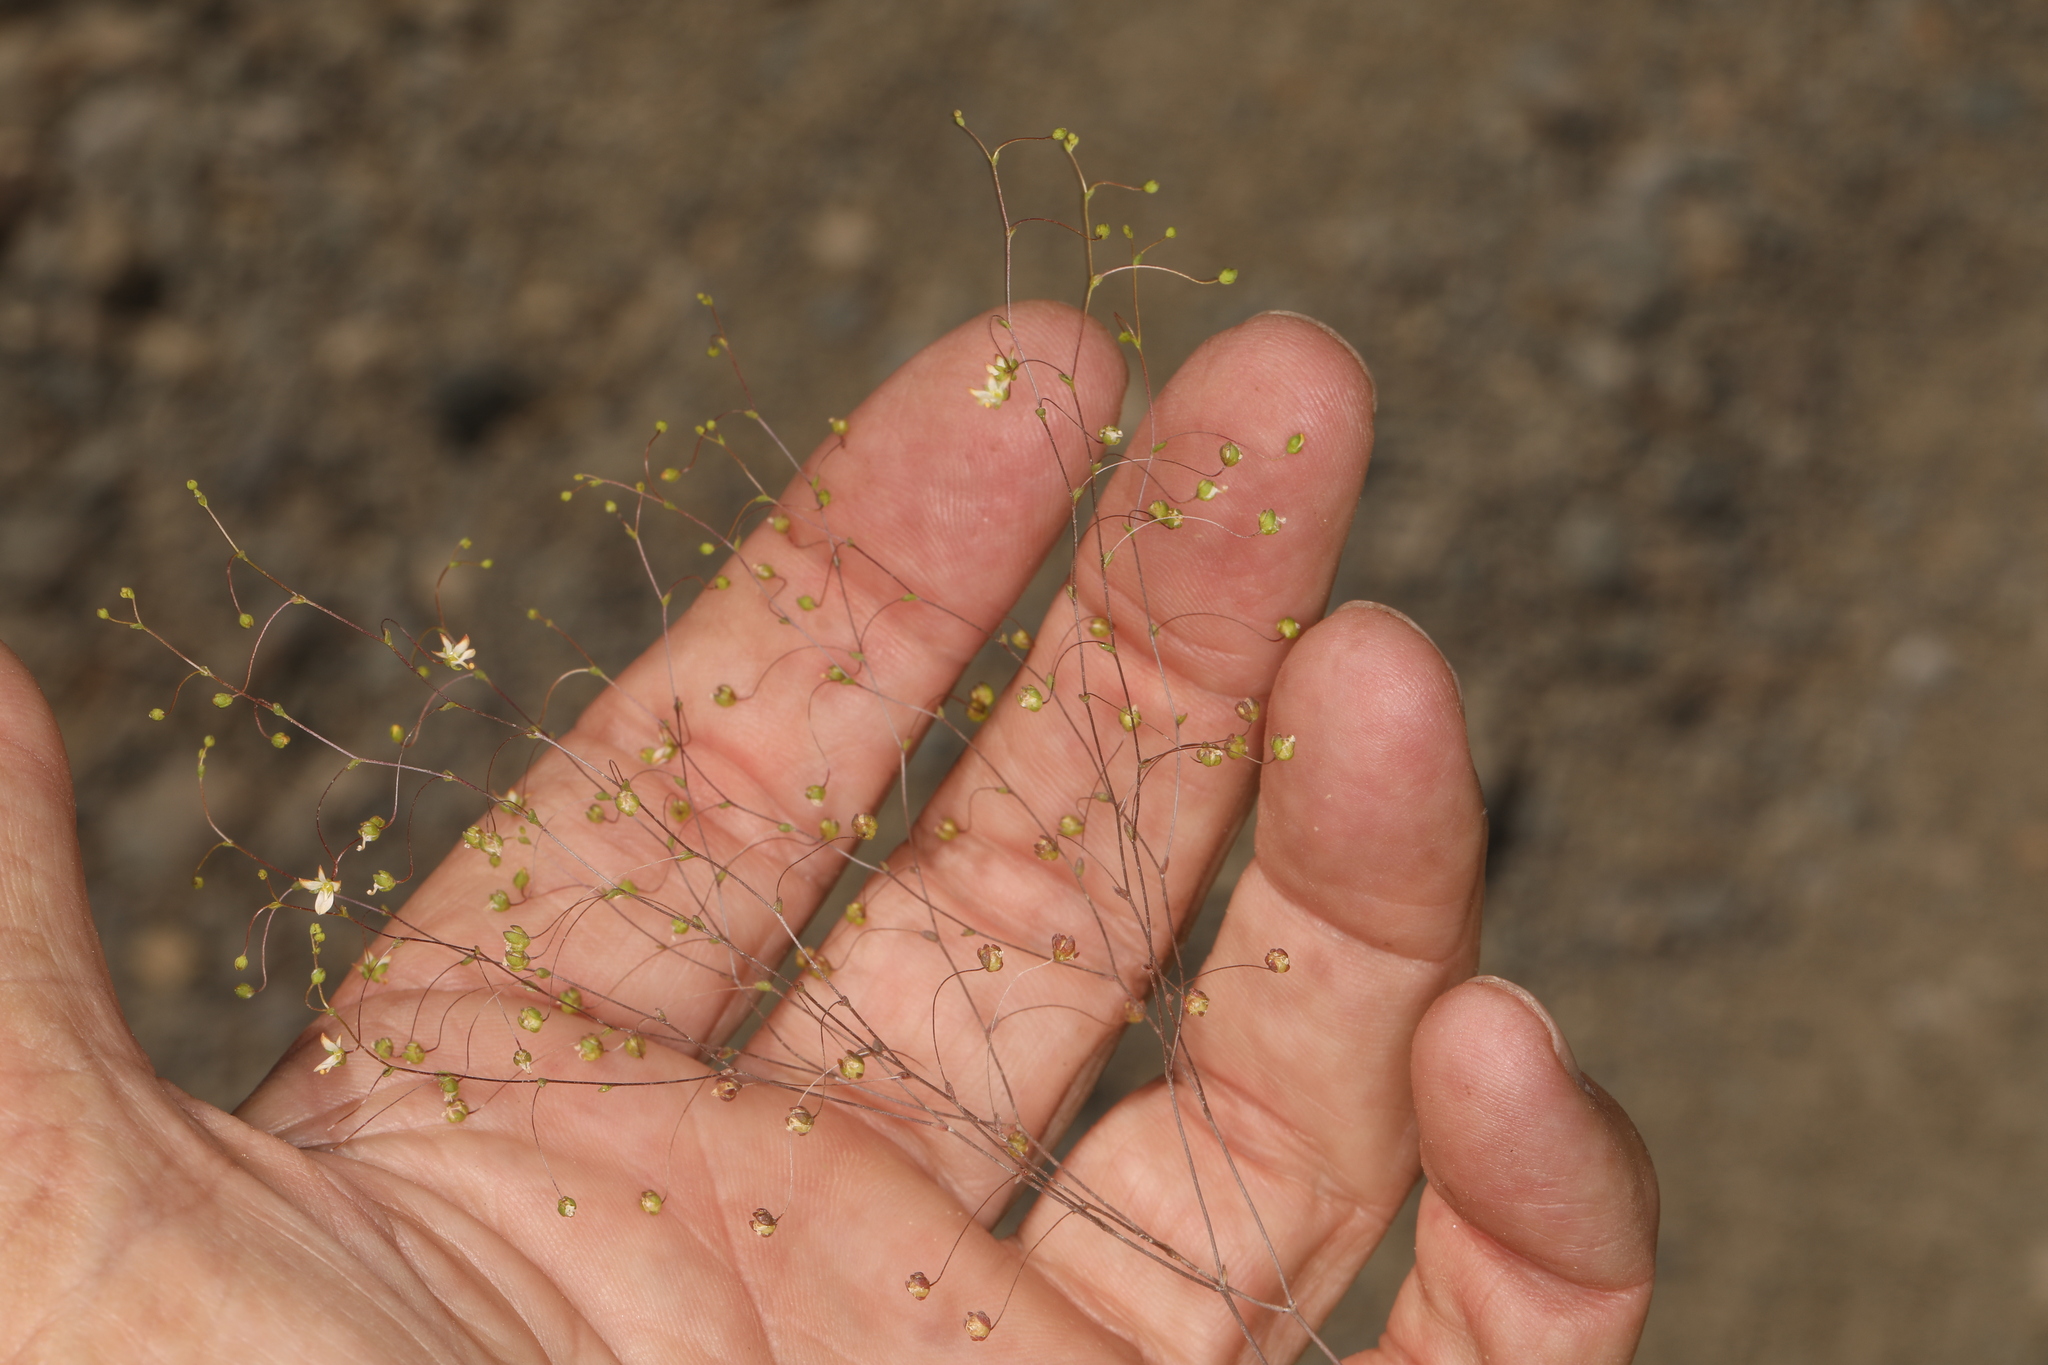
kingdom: Plantae
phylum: Tracheophyta
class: Magnoliopsida
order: Asterales
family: Campanulaceae
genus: Nemacladus
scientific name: Nemacladus morefieldii
